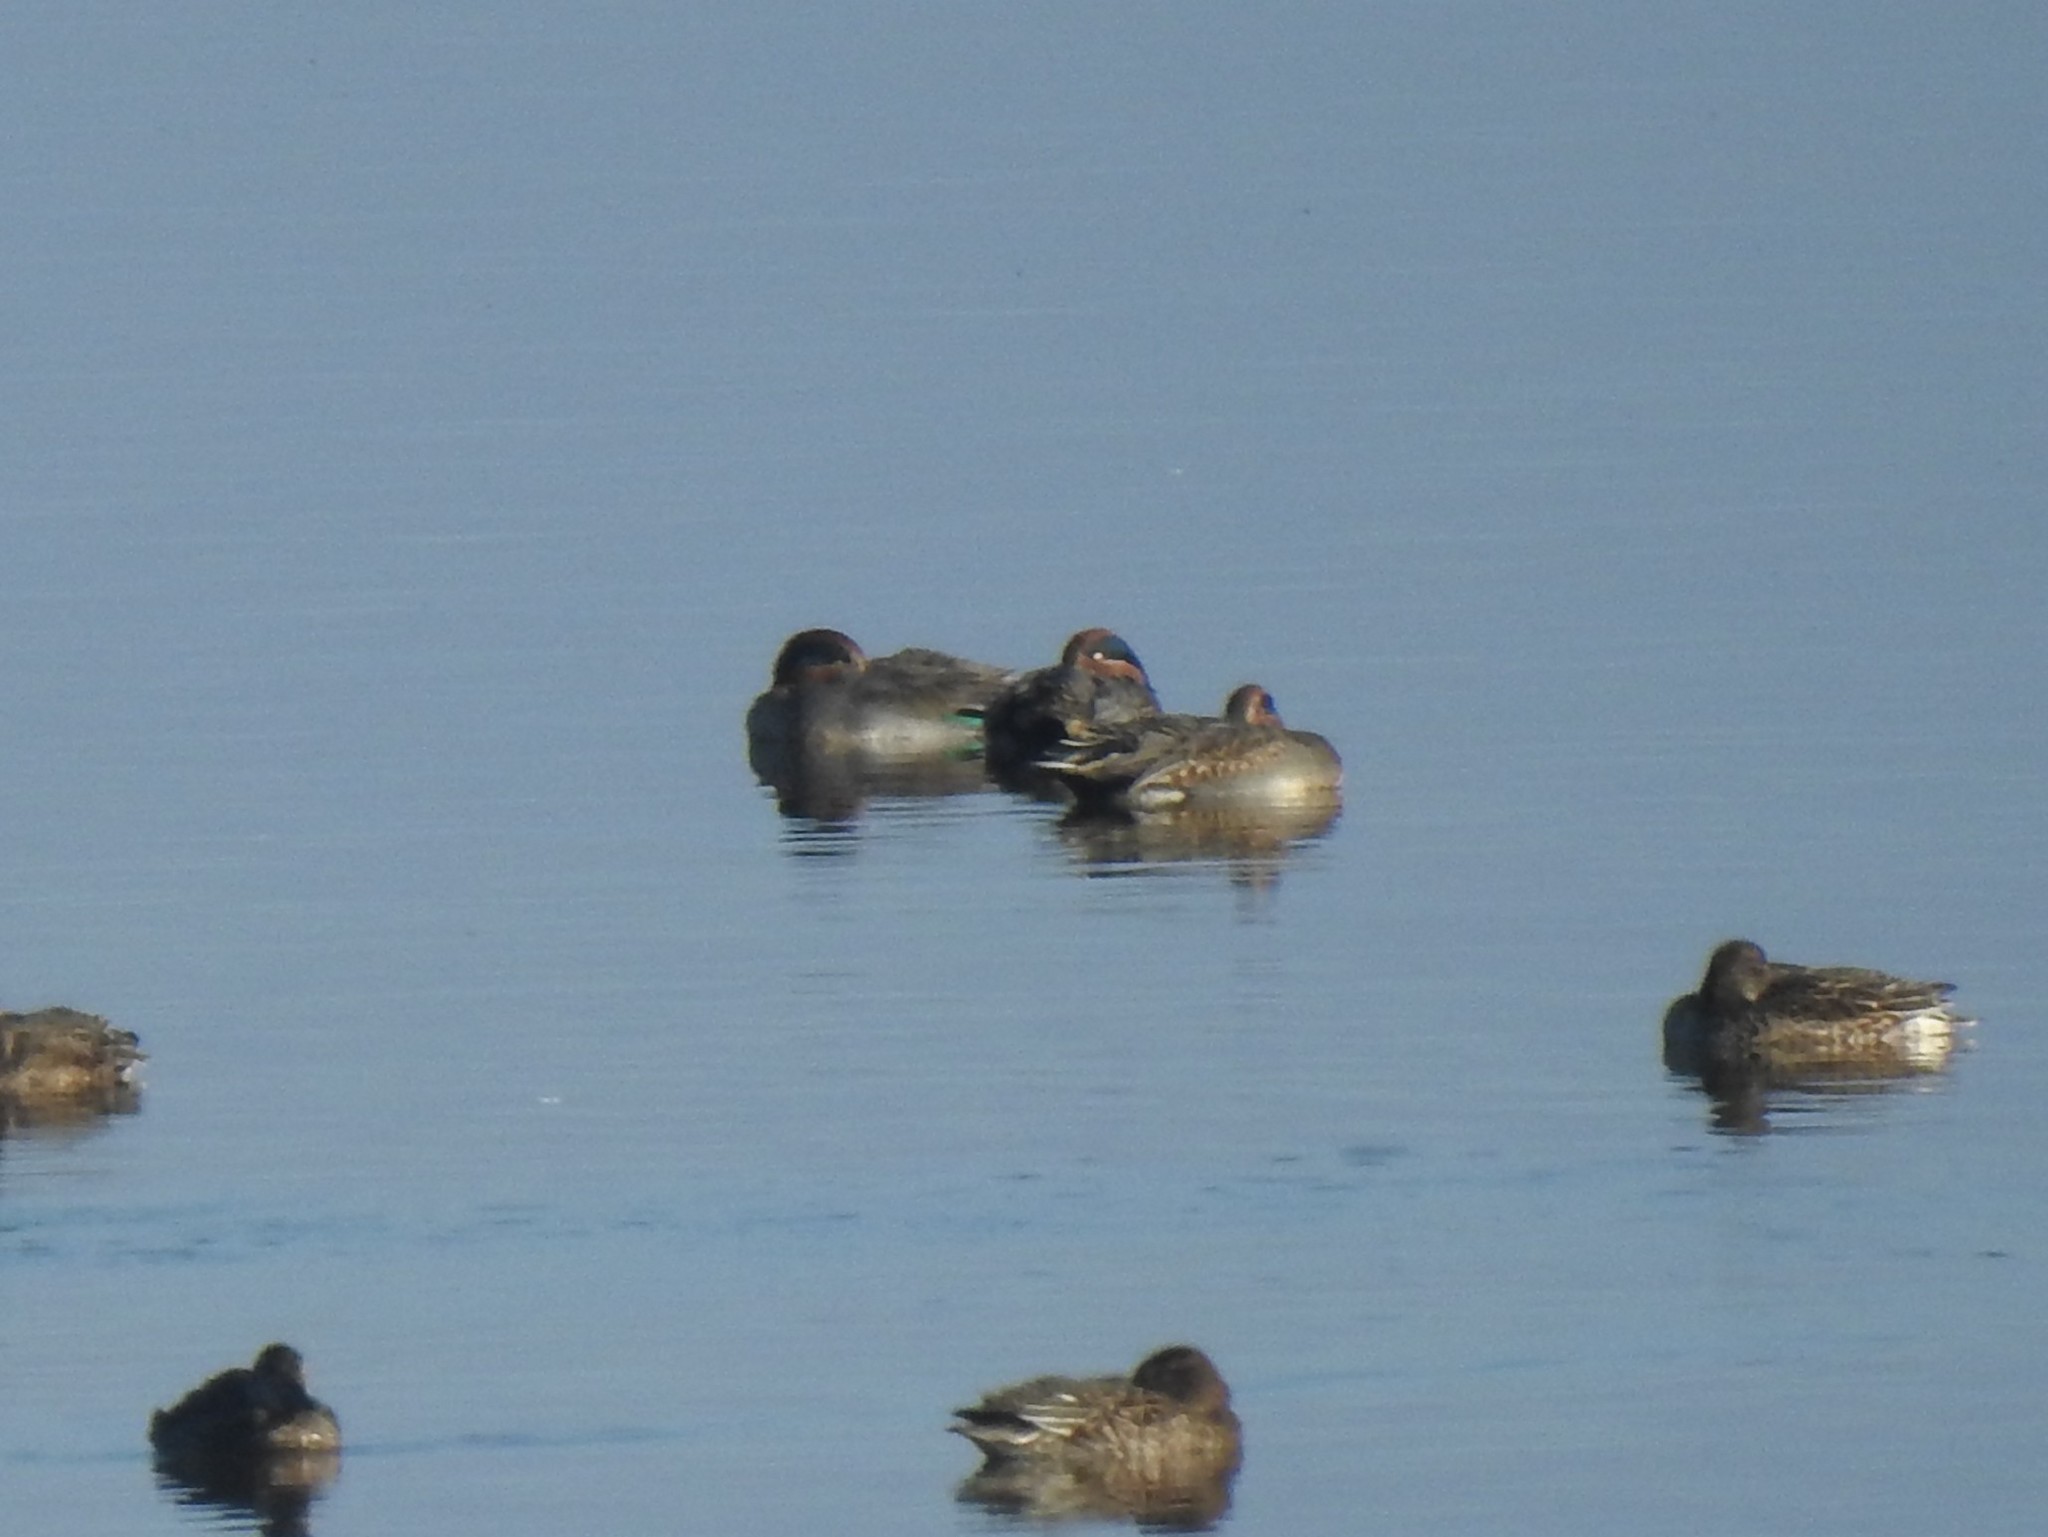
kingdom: Animalia
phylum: Chordata
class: Aves
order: Anseriformes
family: Anatidae
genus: Anas
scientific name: Anas crecca
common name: Eurasian teal
